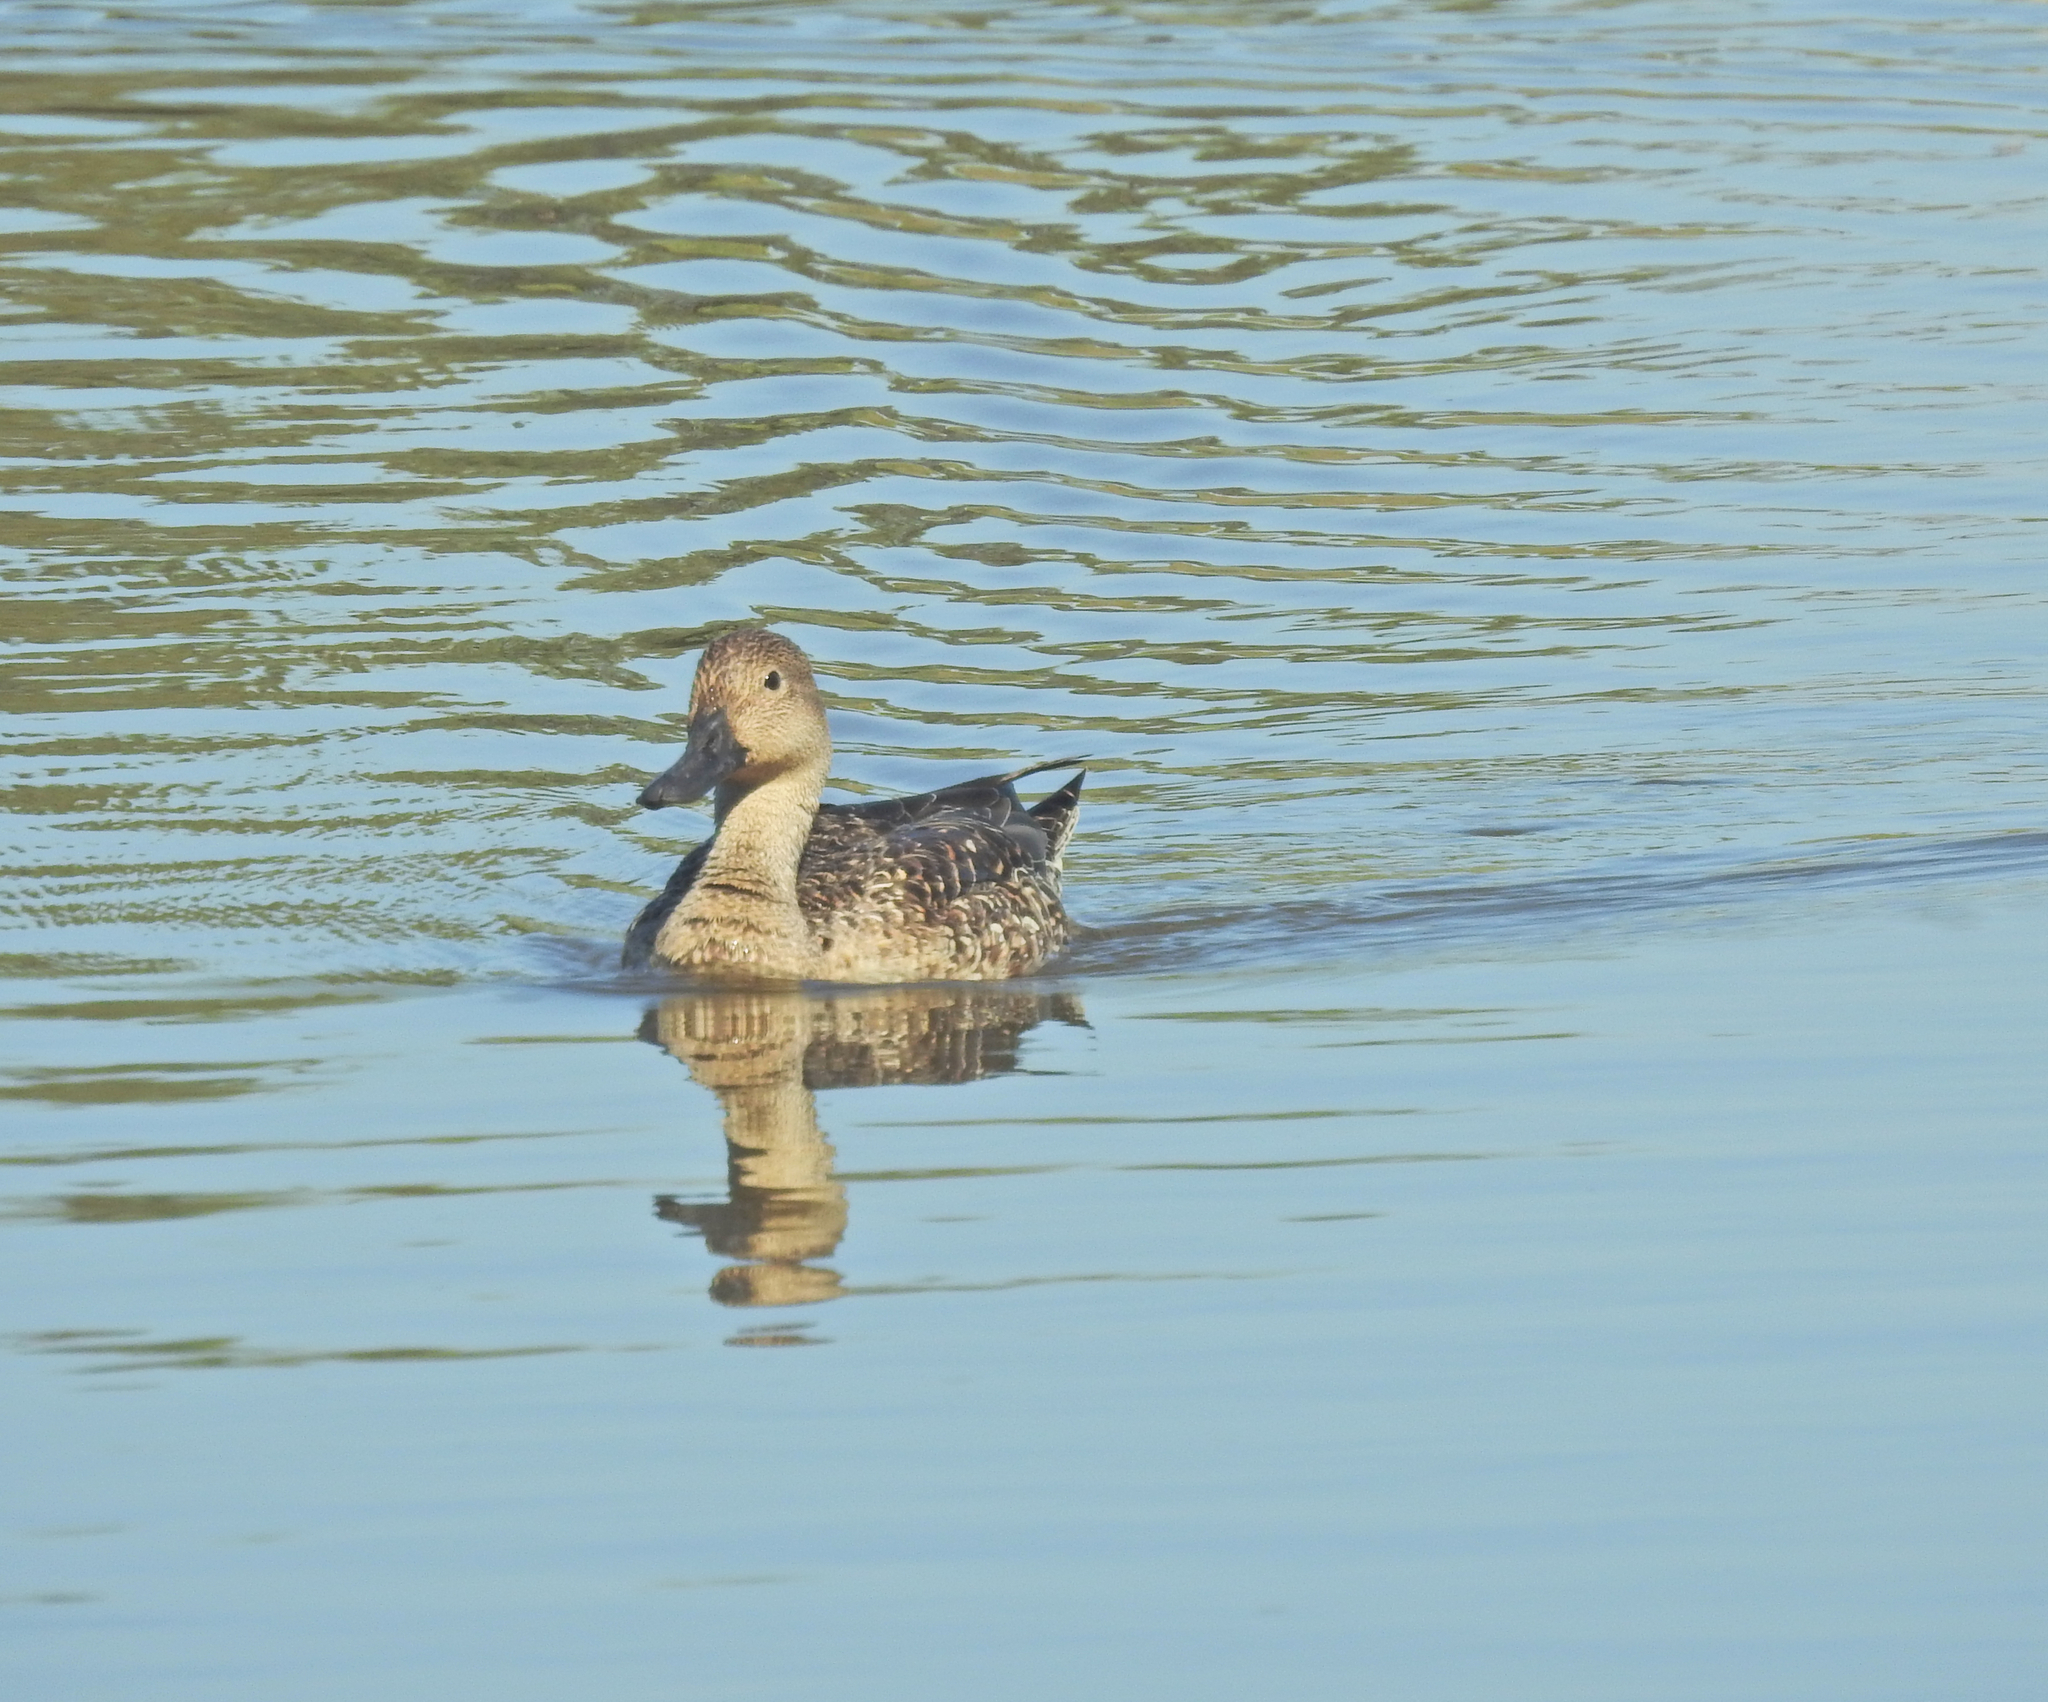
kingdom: Animalia
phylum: Chordata
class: Aves
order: Anseriformes
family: Anatidae
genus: Anas
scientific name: Anas acuta
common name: Northern pintail
